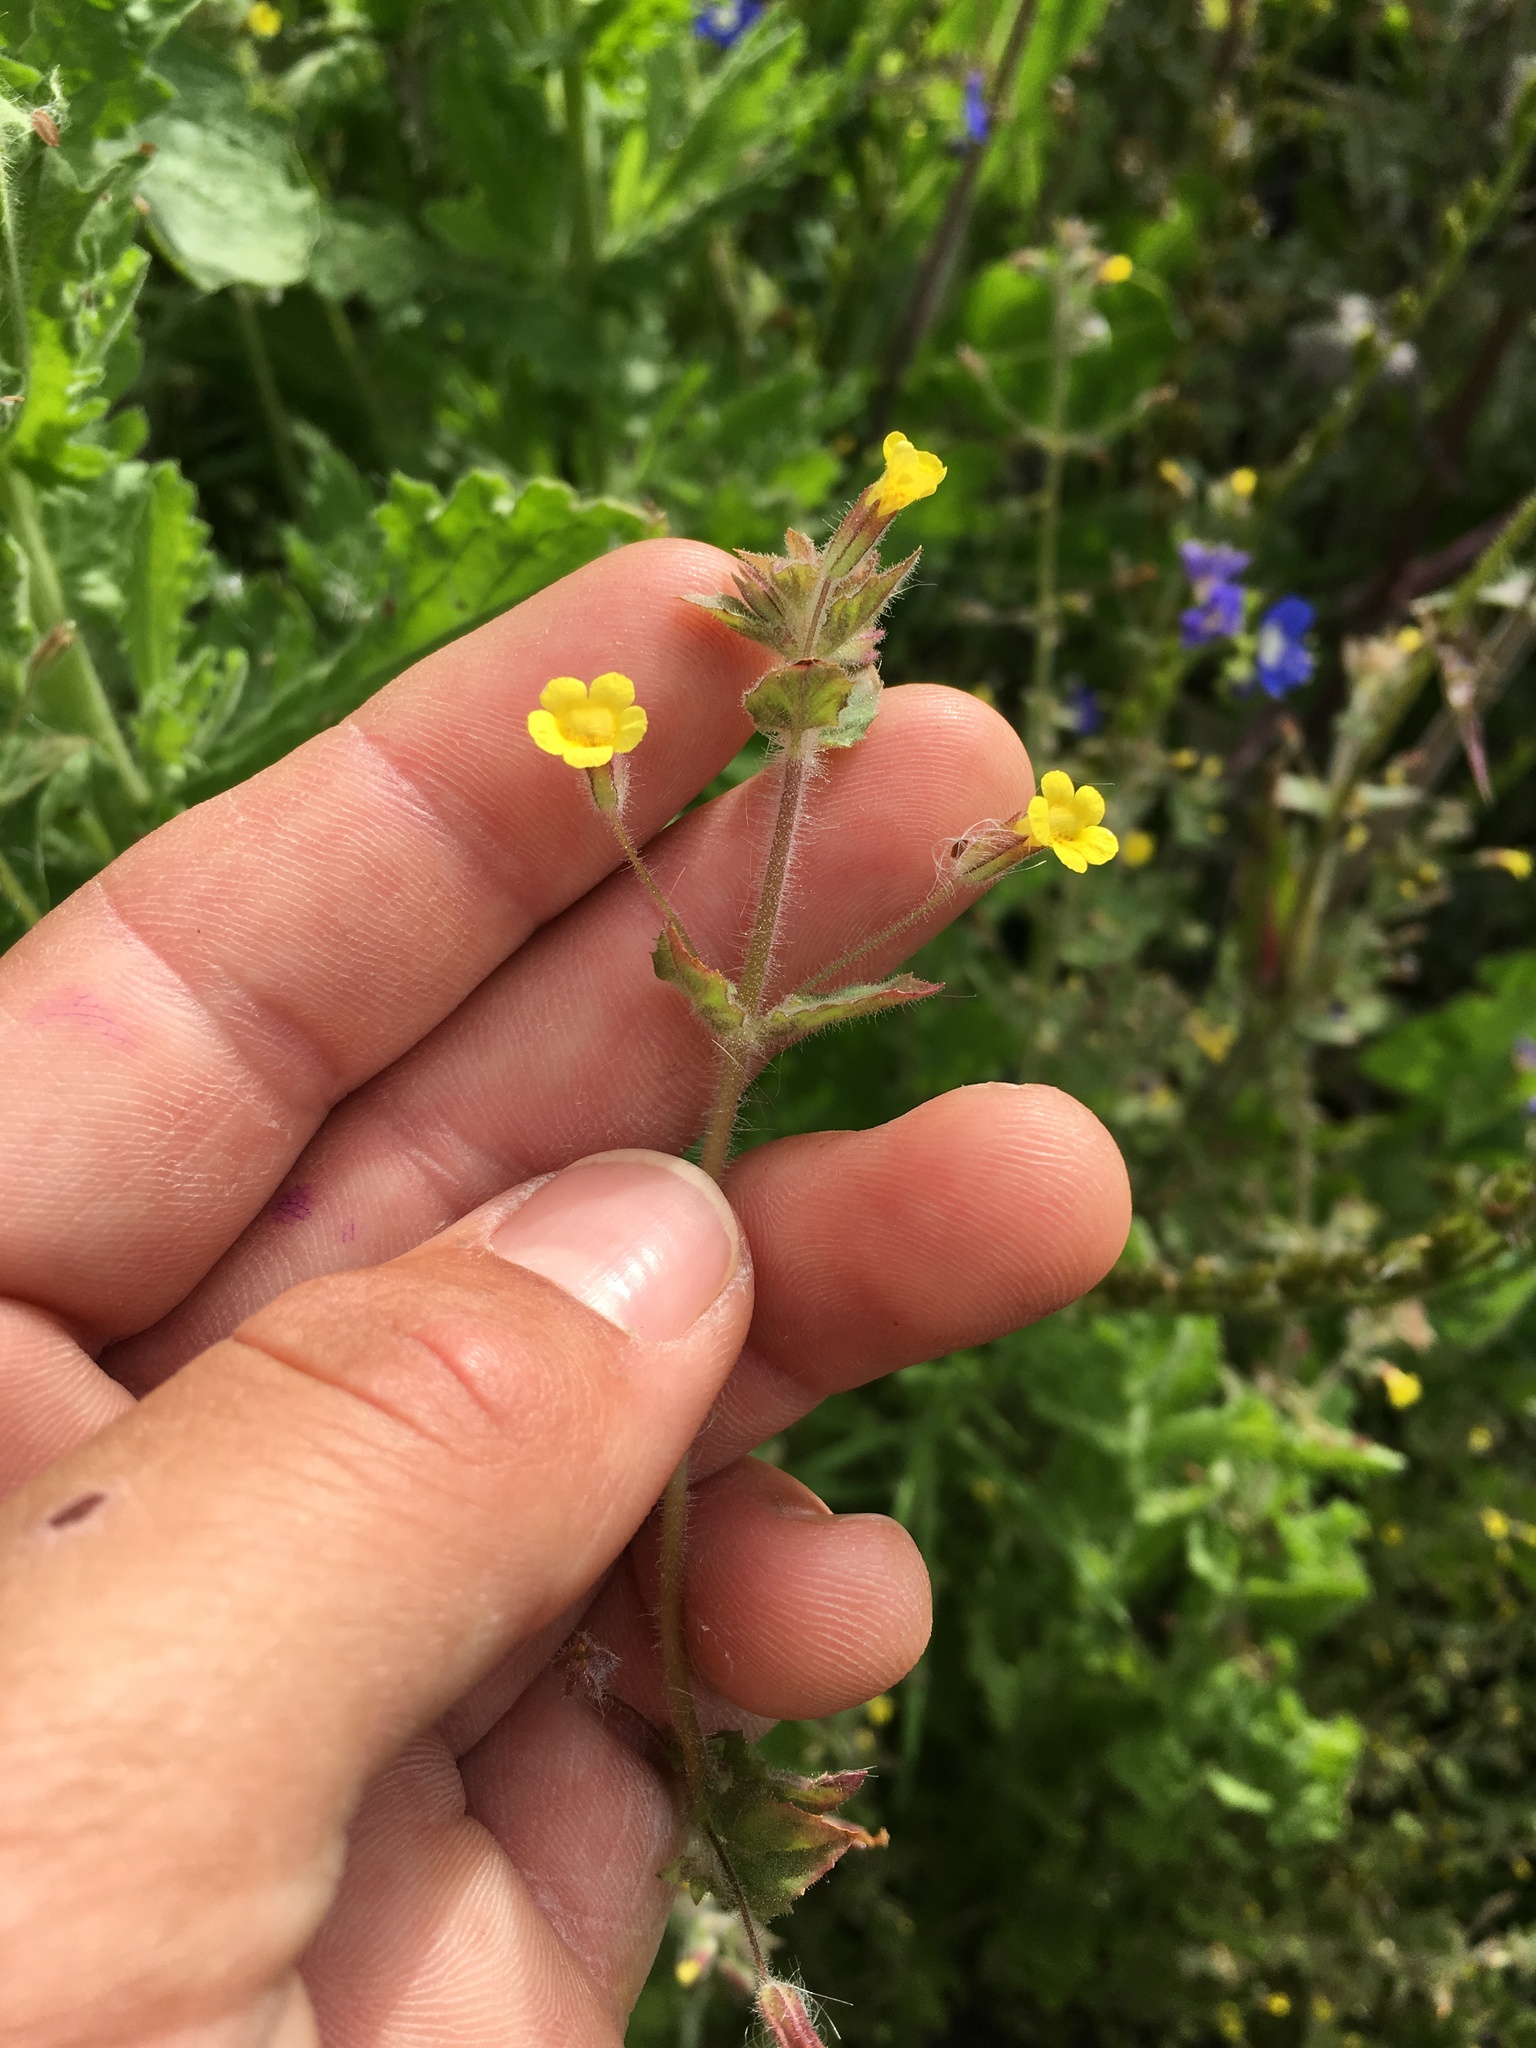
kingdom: Plantae
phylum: Tracheophyta
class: Magnoliopsida
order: Lamiales
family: Phrymaceae
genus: Erythranthe
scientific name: Erythranthe floribunda
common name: Floriferous monkeyflower
